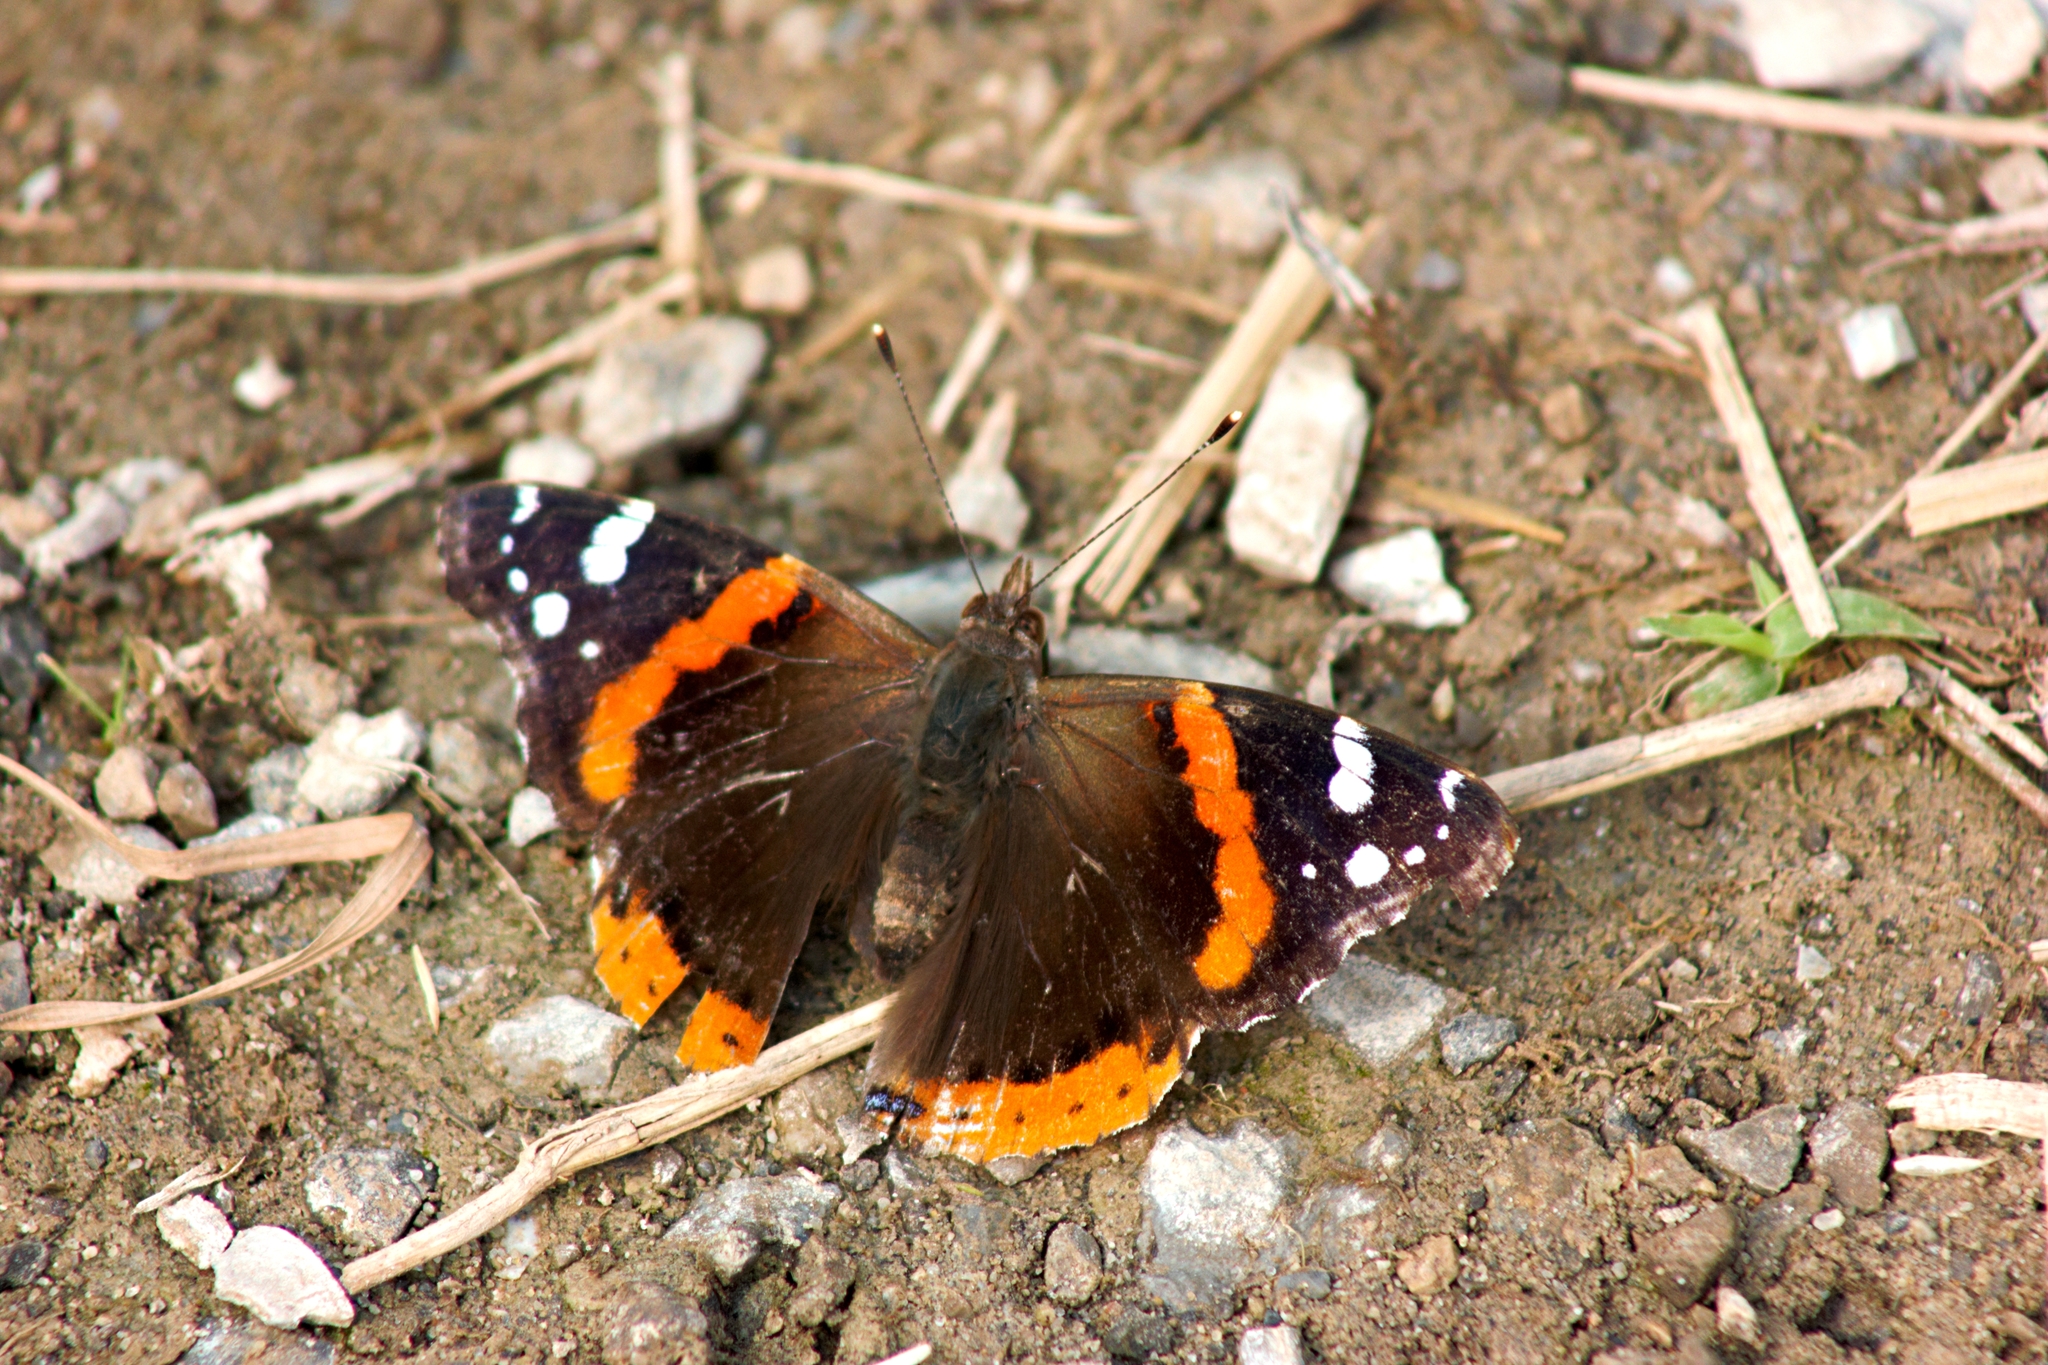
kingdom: Animalia
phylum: Arthropoda
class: Insecta
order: Lepidoptera
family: Nymphalidae
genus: Vanessa
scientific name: Vanessa atalanta
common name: Red admiral
